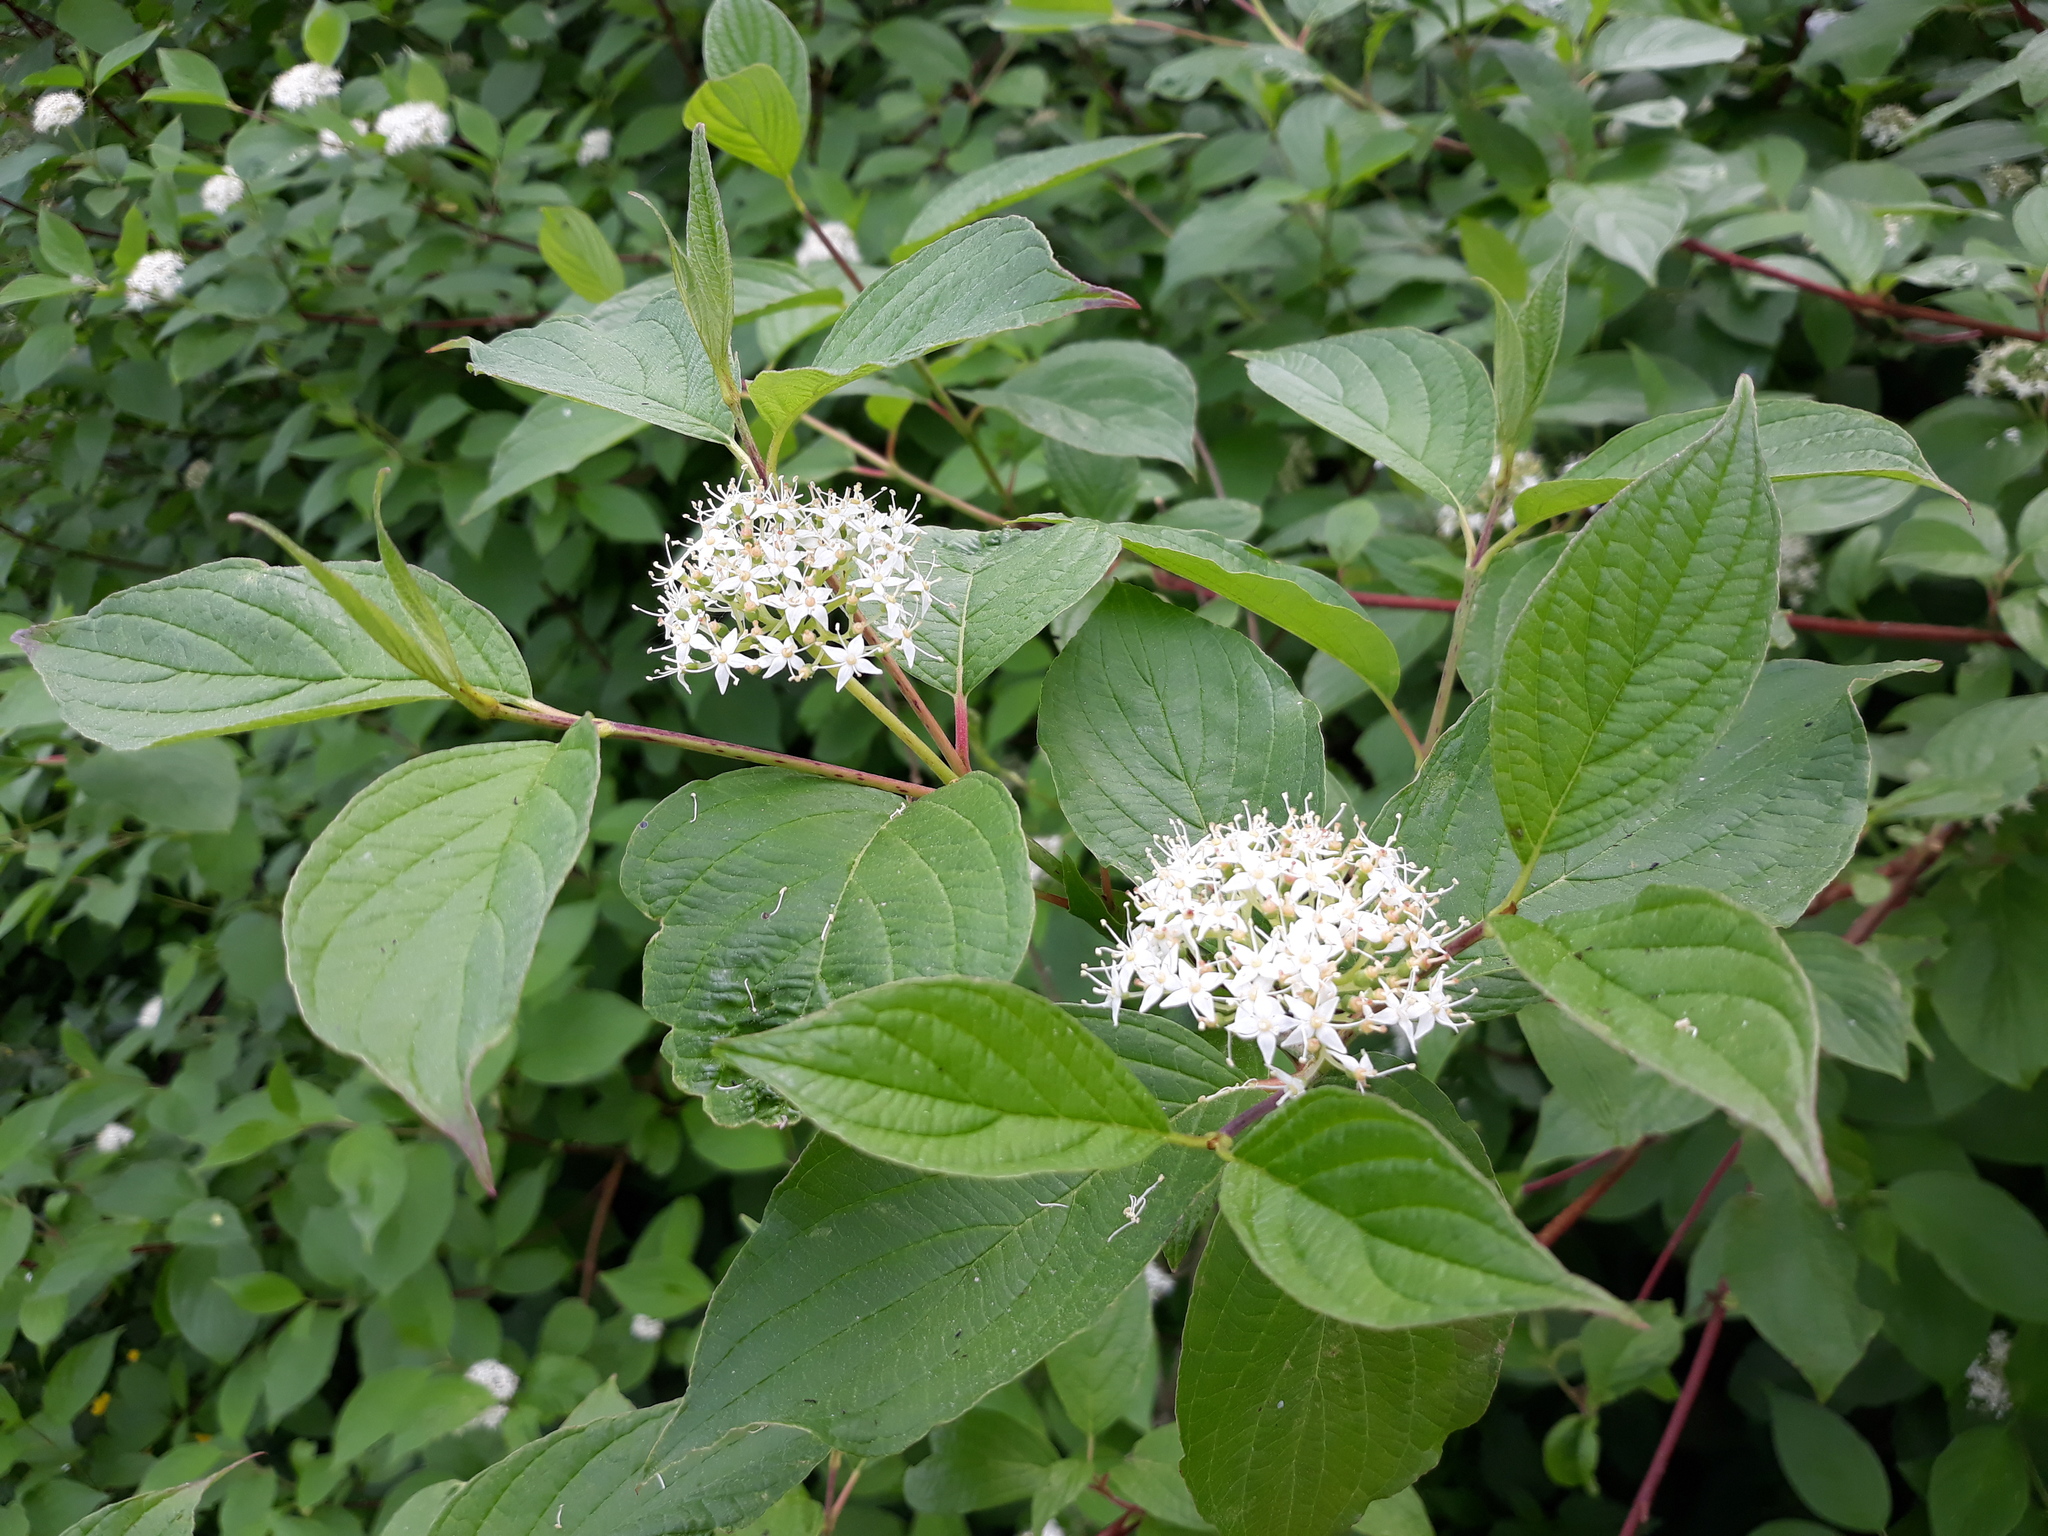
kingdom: Plantae
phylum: Tracheophyta
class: Magnoliopsida
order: Cornales
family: Cornaceae
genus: Cornus
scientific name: Cornus sanguinea
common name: Dogwood
